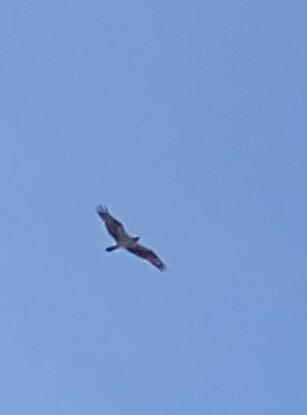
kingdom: Animalia
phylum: Chordata
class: Aves
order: Accipitriformes
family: Pandionidae
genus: Pandion
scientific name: Pandion haliaetus
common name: Osprey
